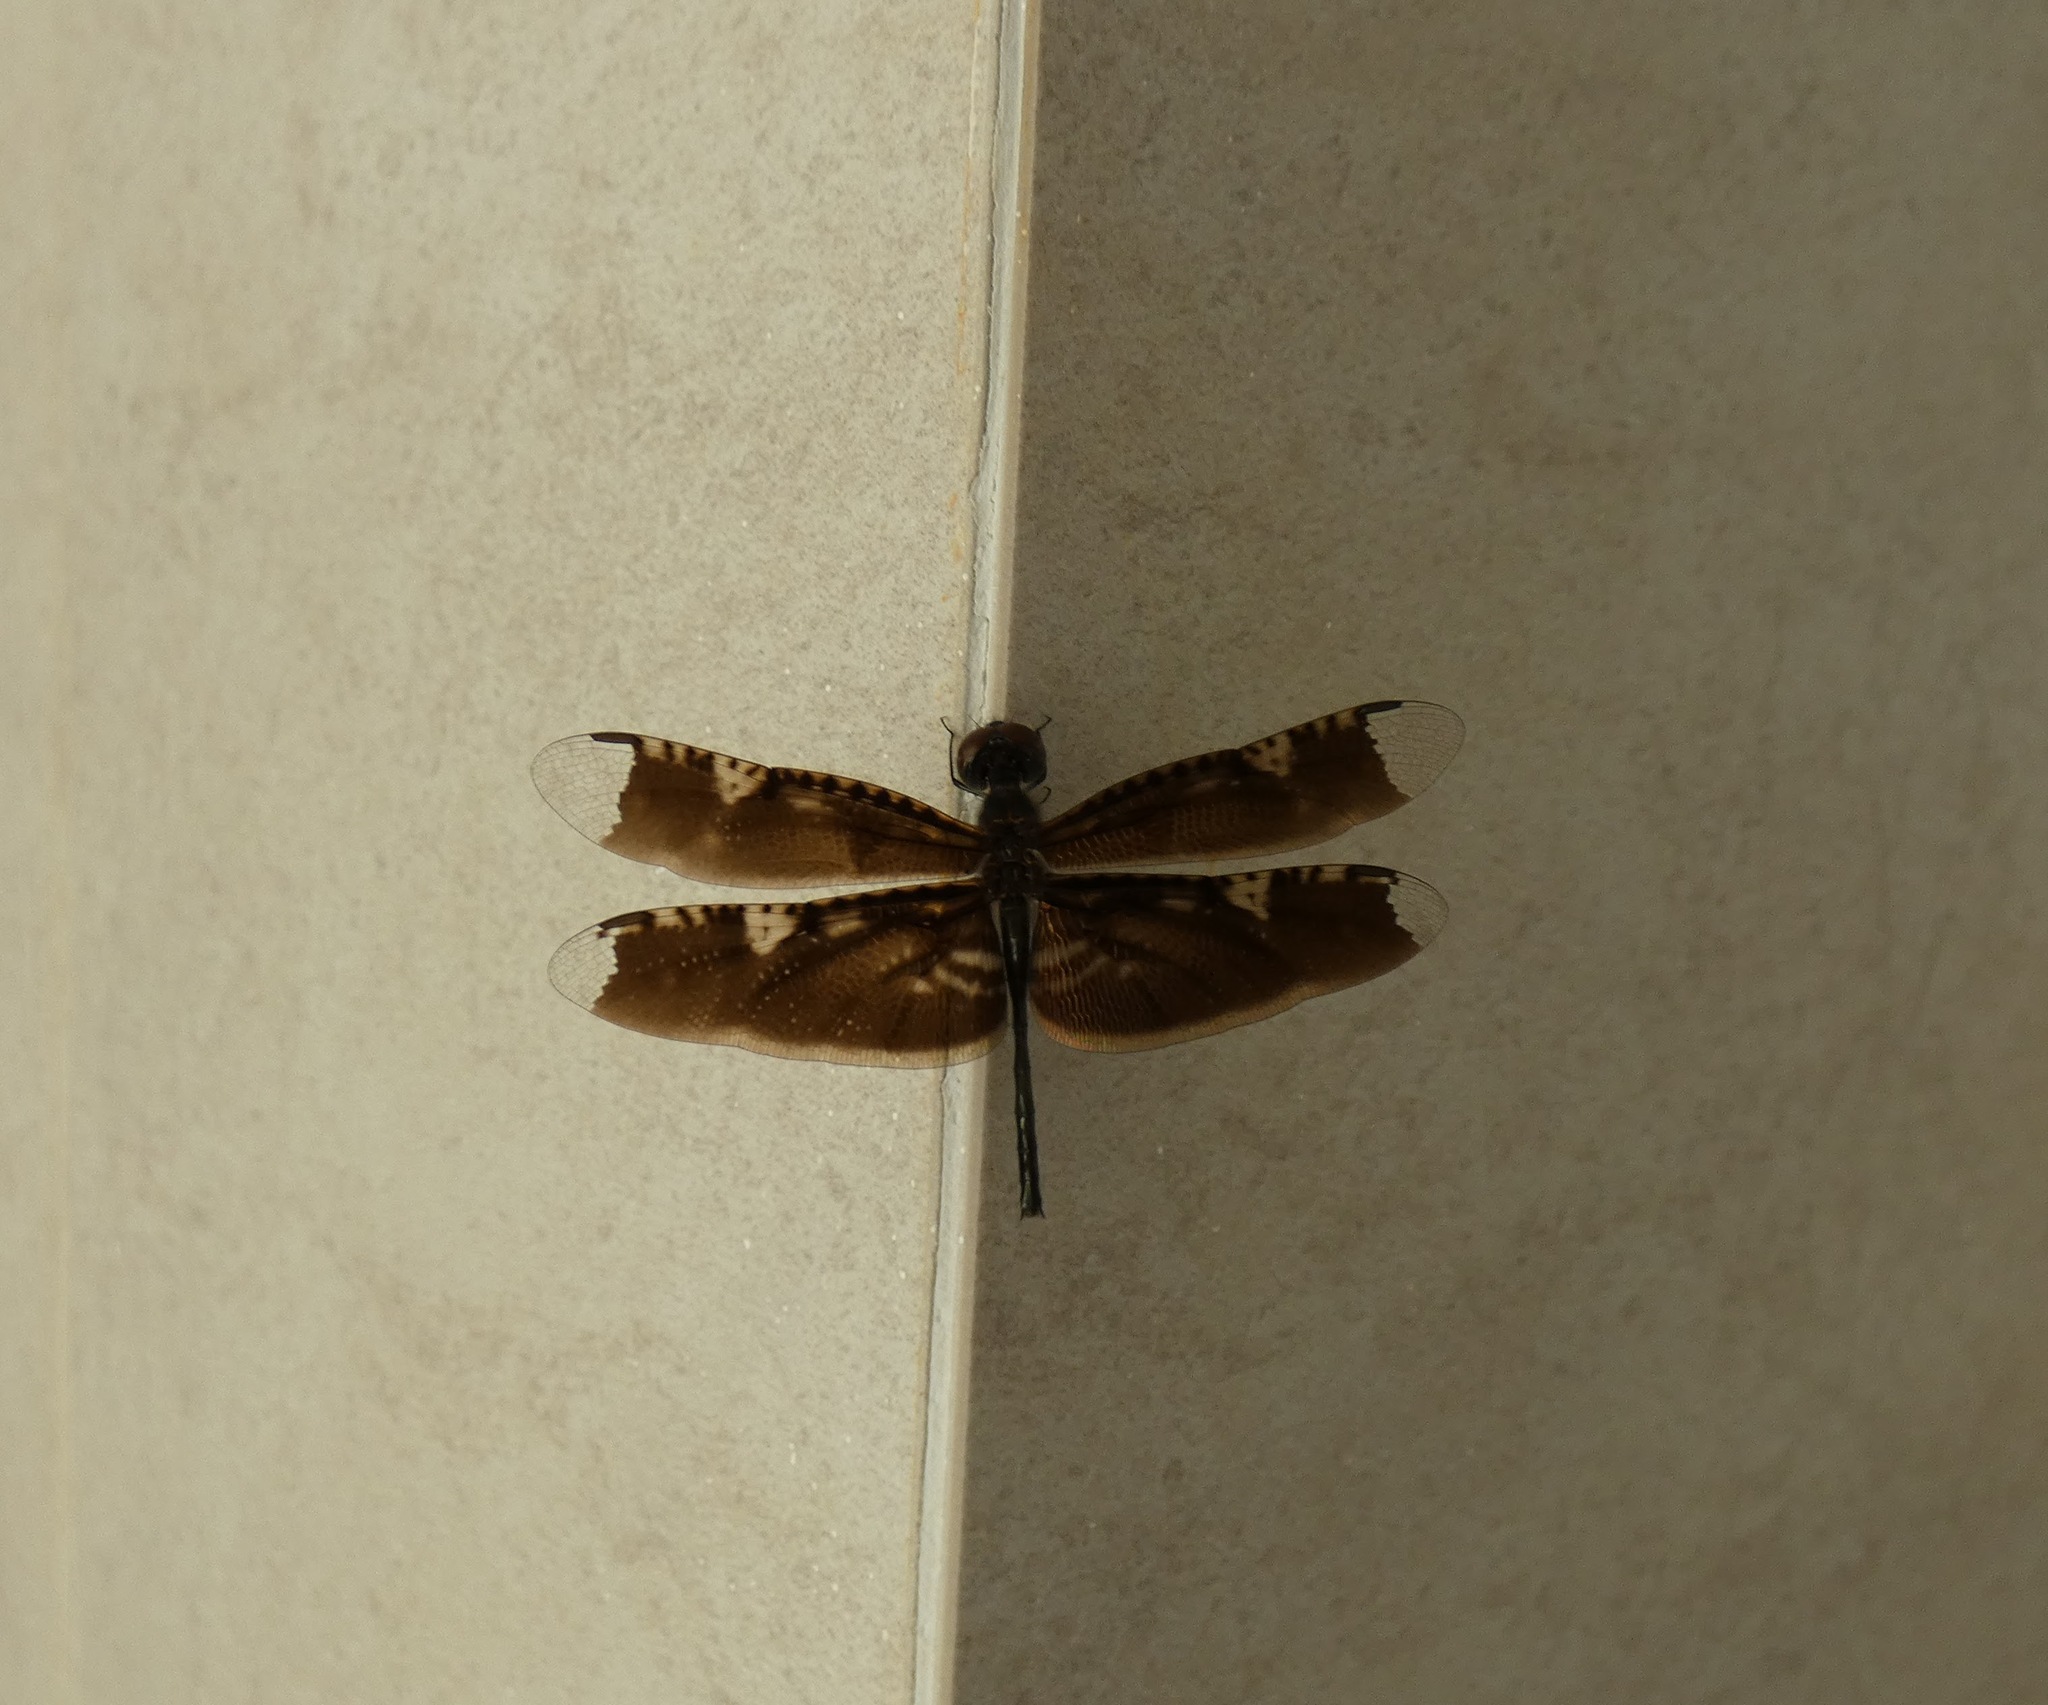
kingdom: Animalia
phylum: Arthropoda
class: Insecta
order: Odonata
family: Libellulidae
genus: Rhyothemis
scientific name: Rhyothemis obsolescens
